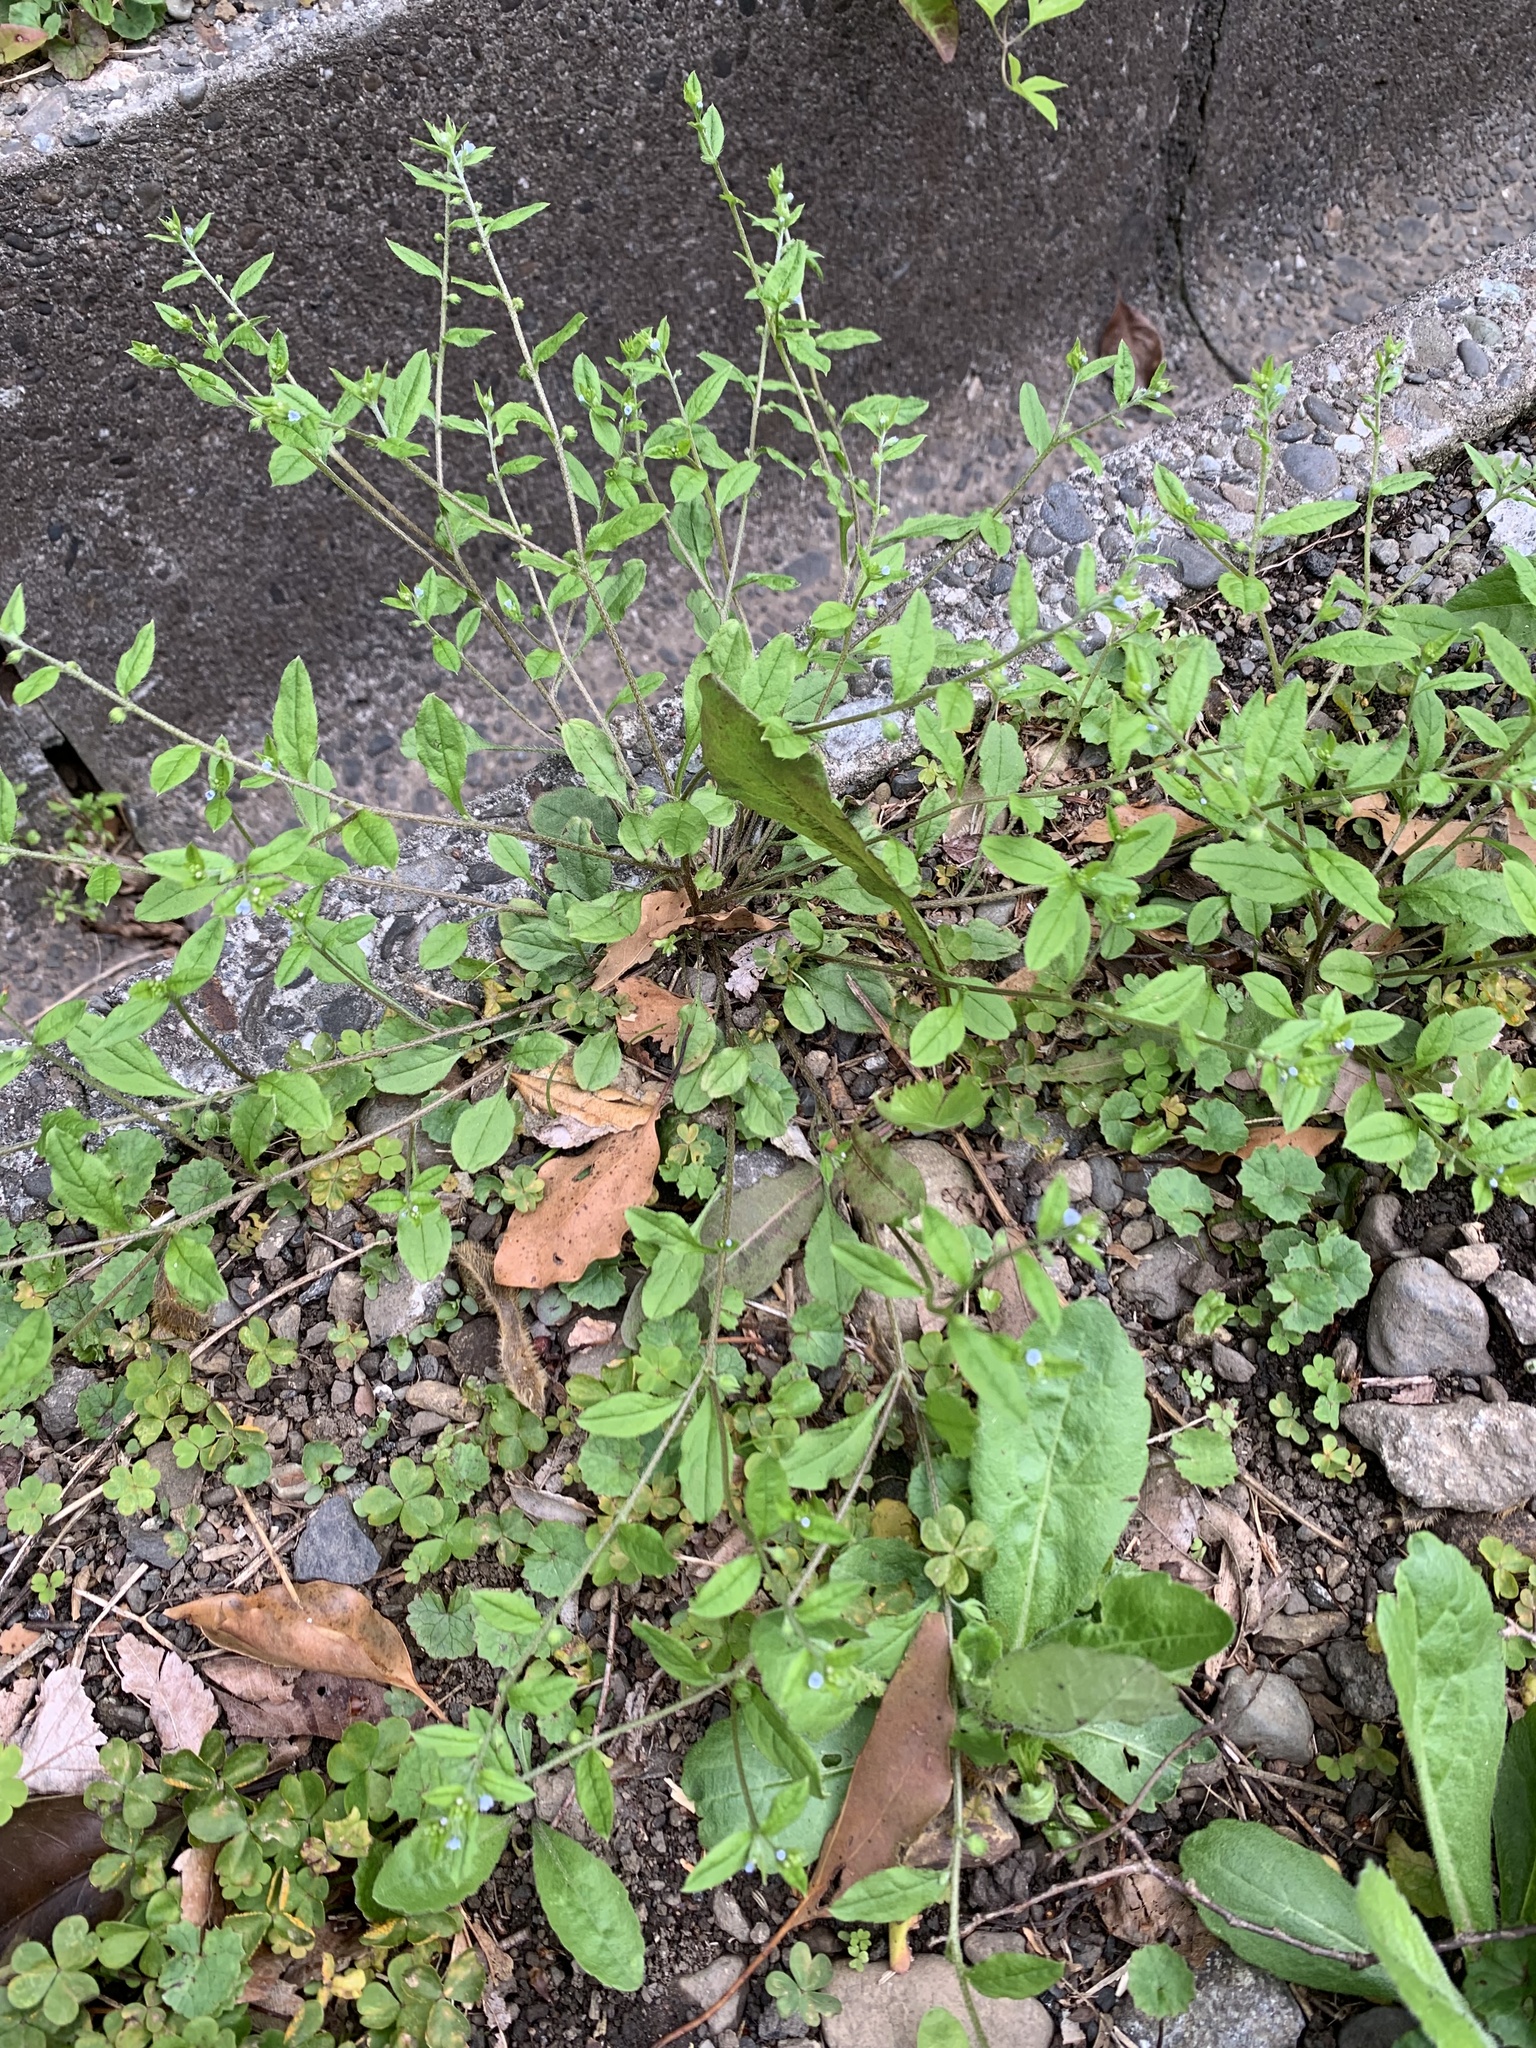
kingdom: Plantae
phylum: Tracheophyta
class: Magnoliopsida
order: Boraginales
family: Boraginaceae
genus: Bothriospermum
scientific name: Bothriospermum zeylanicum
